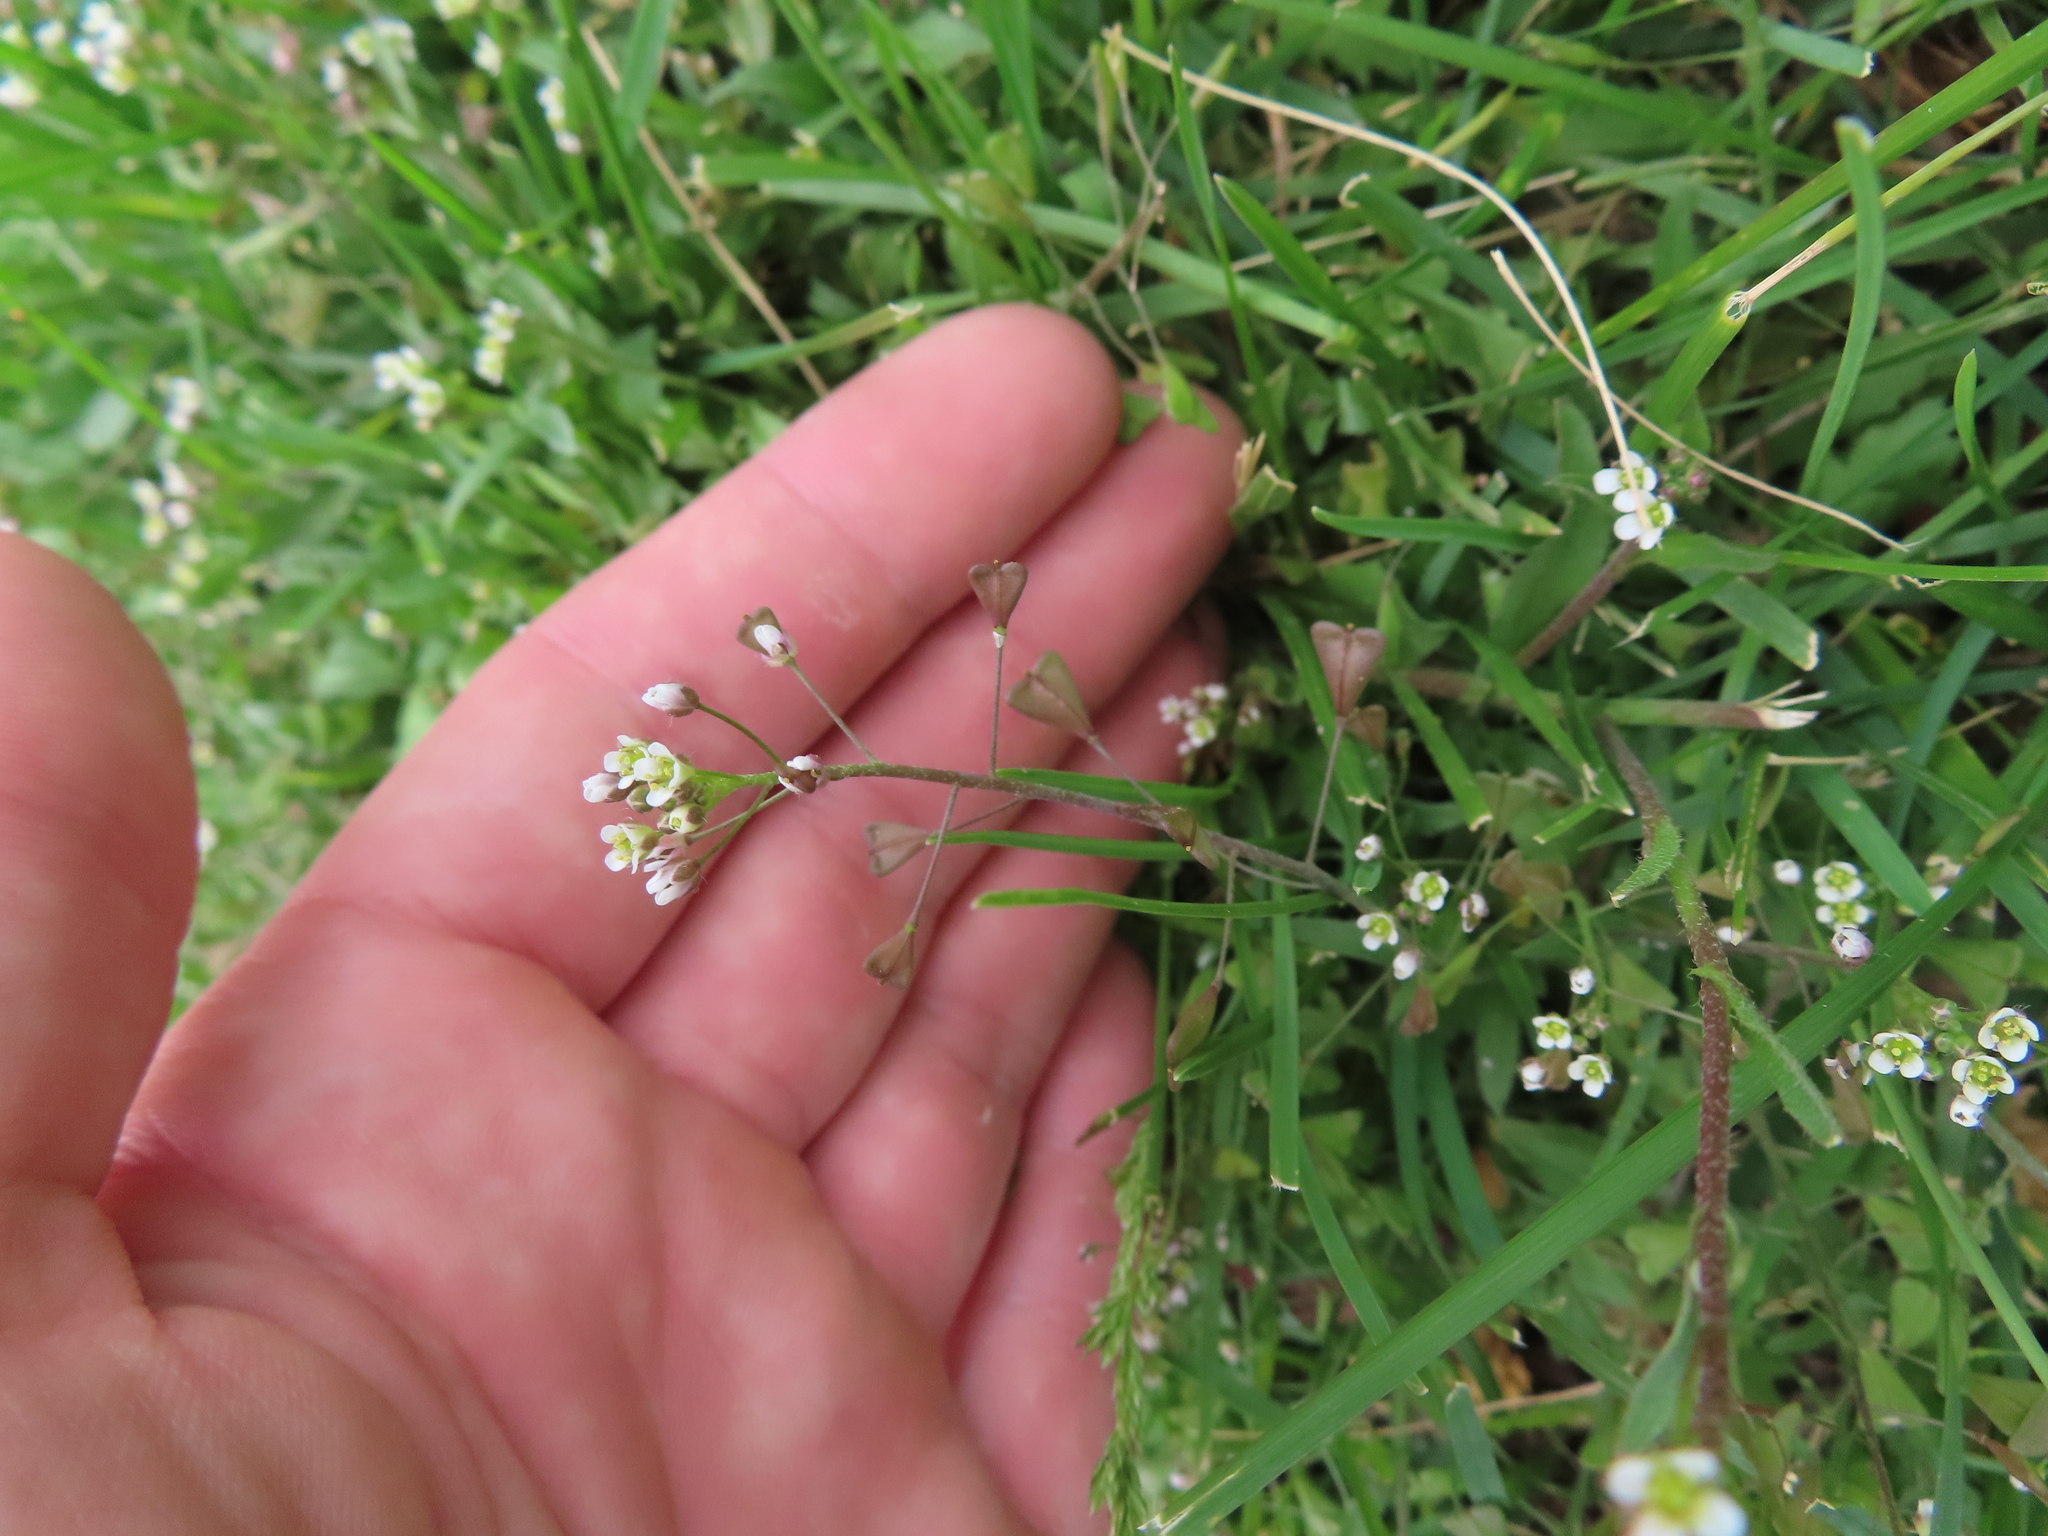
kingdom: Plantae
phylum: Tracheophyta
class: Magnoliopsida
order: Brassicales
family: Brassicaceae
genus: Capsella
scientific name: Capsella bursa-pastoris
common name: Shepherd's purse
